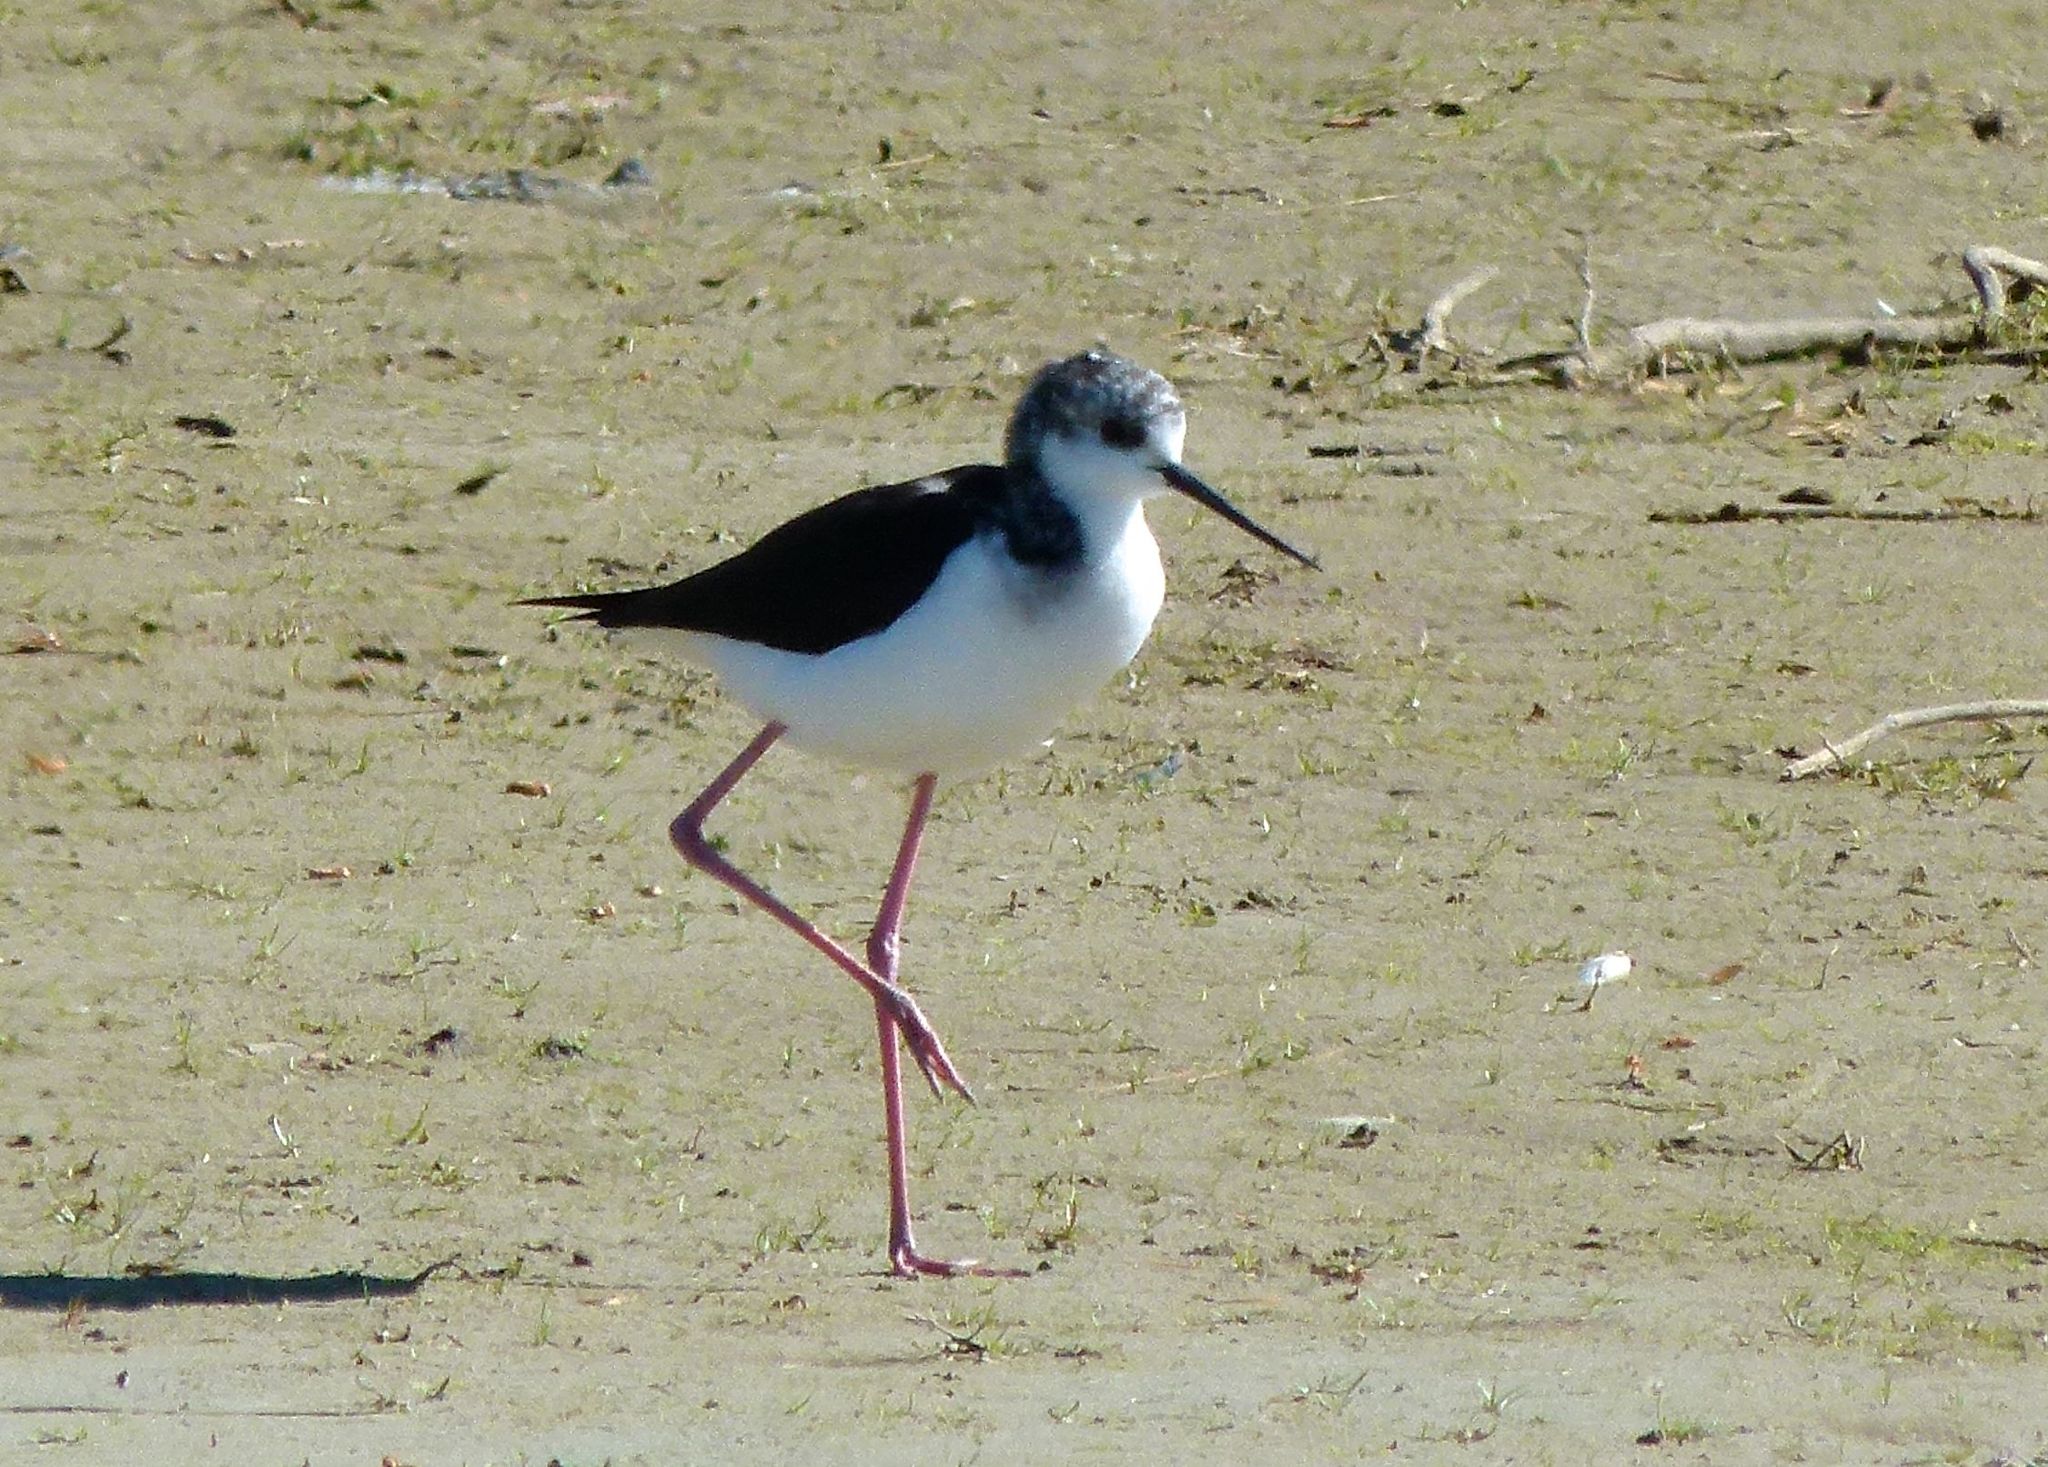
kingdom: Animalia
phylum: Chordata
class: Aves
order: Charadriiformes
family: Recurvirostridae
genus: Himantopus
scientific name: Himantopus leucocephalus
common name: White-headed stilt
